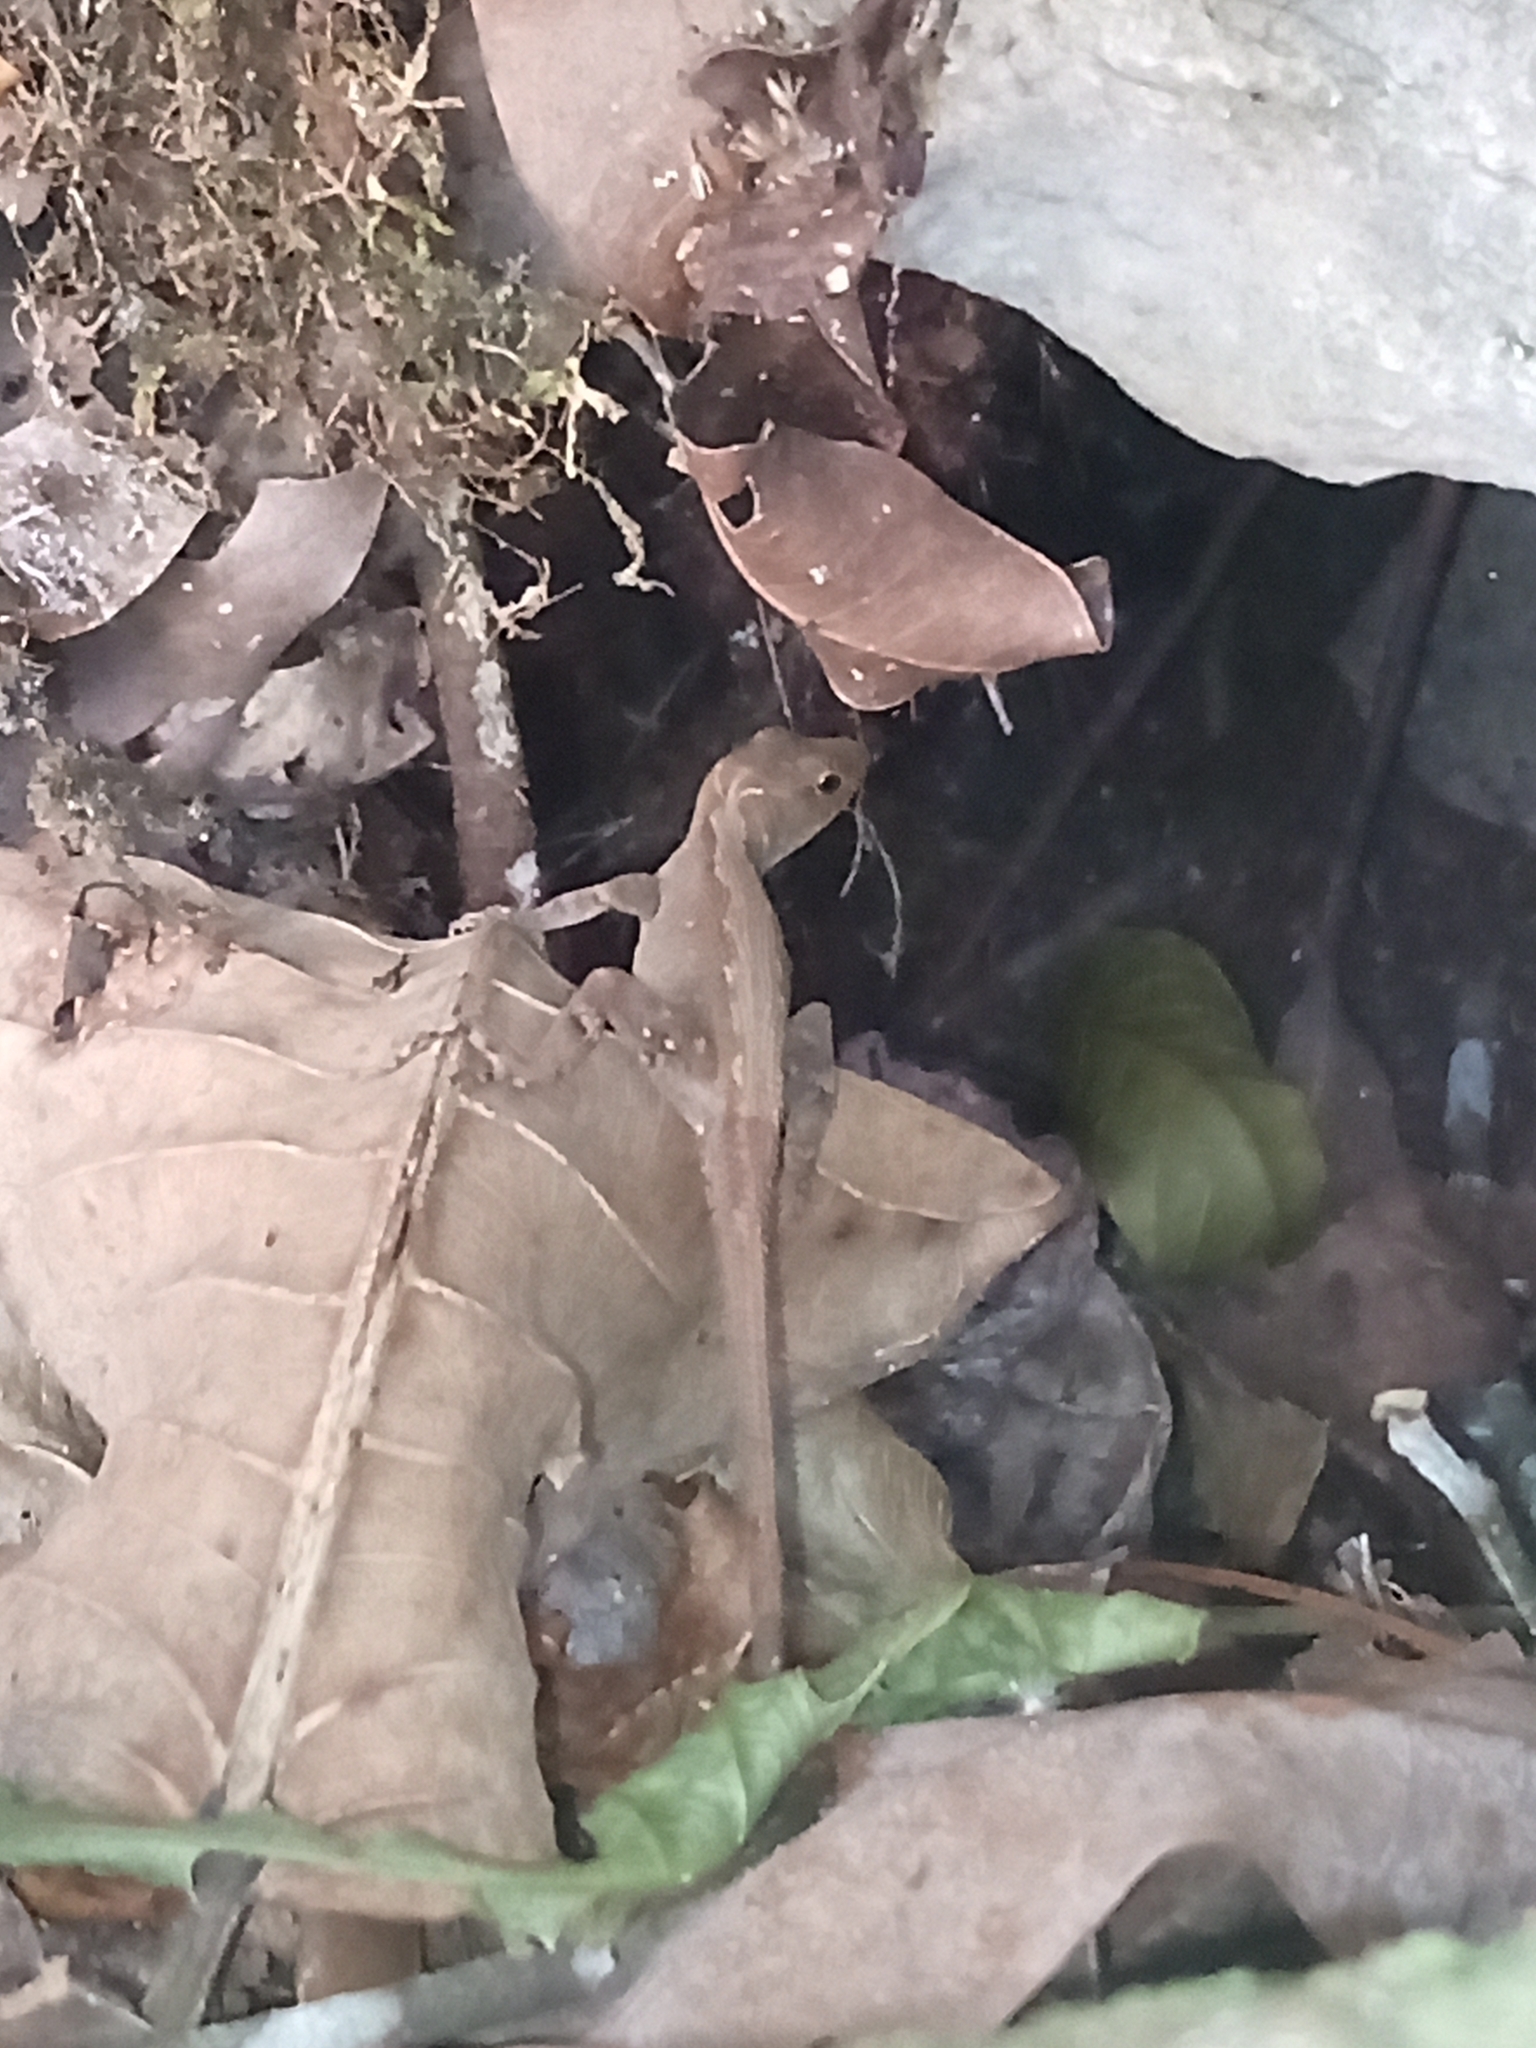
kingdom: Animalia
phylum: Chordata
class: Squamata
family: Dactyloidae
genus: Anolis
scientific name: Anolis spilorhipis
